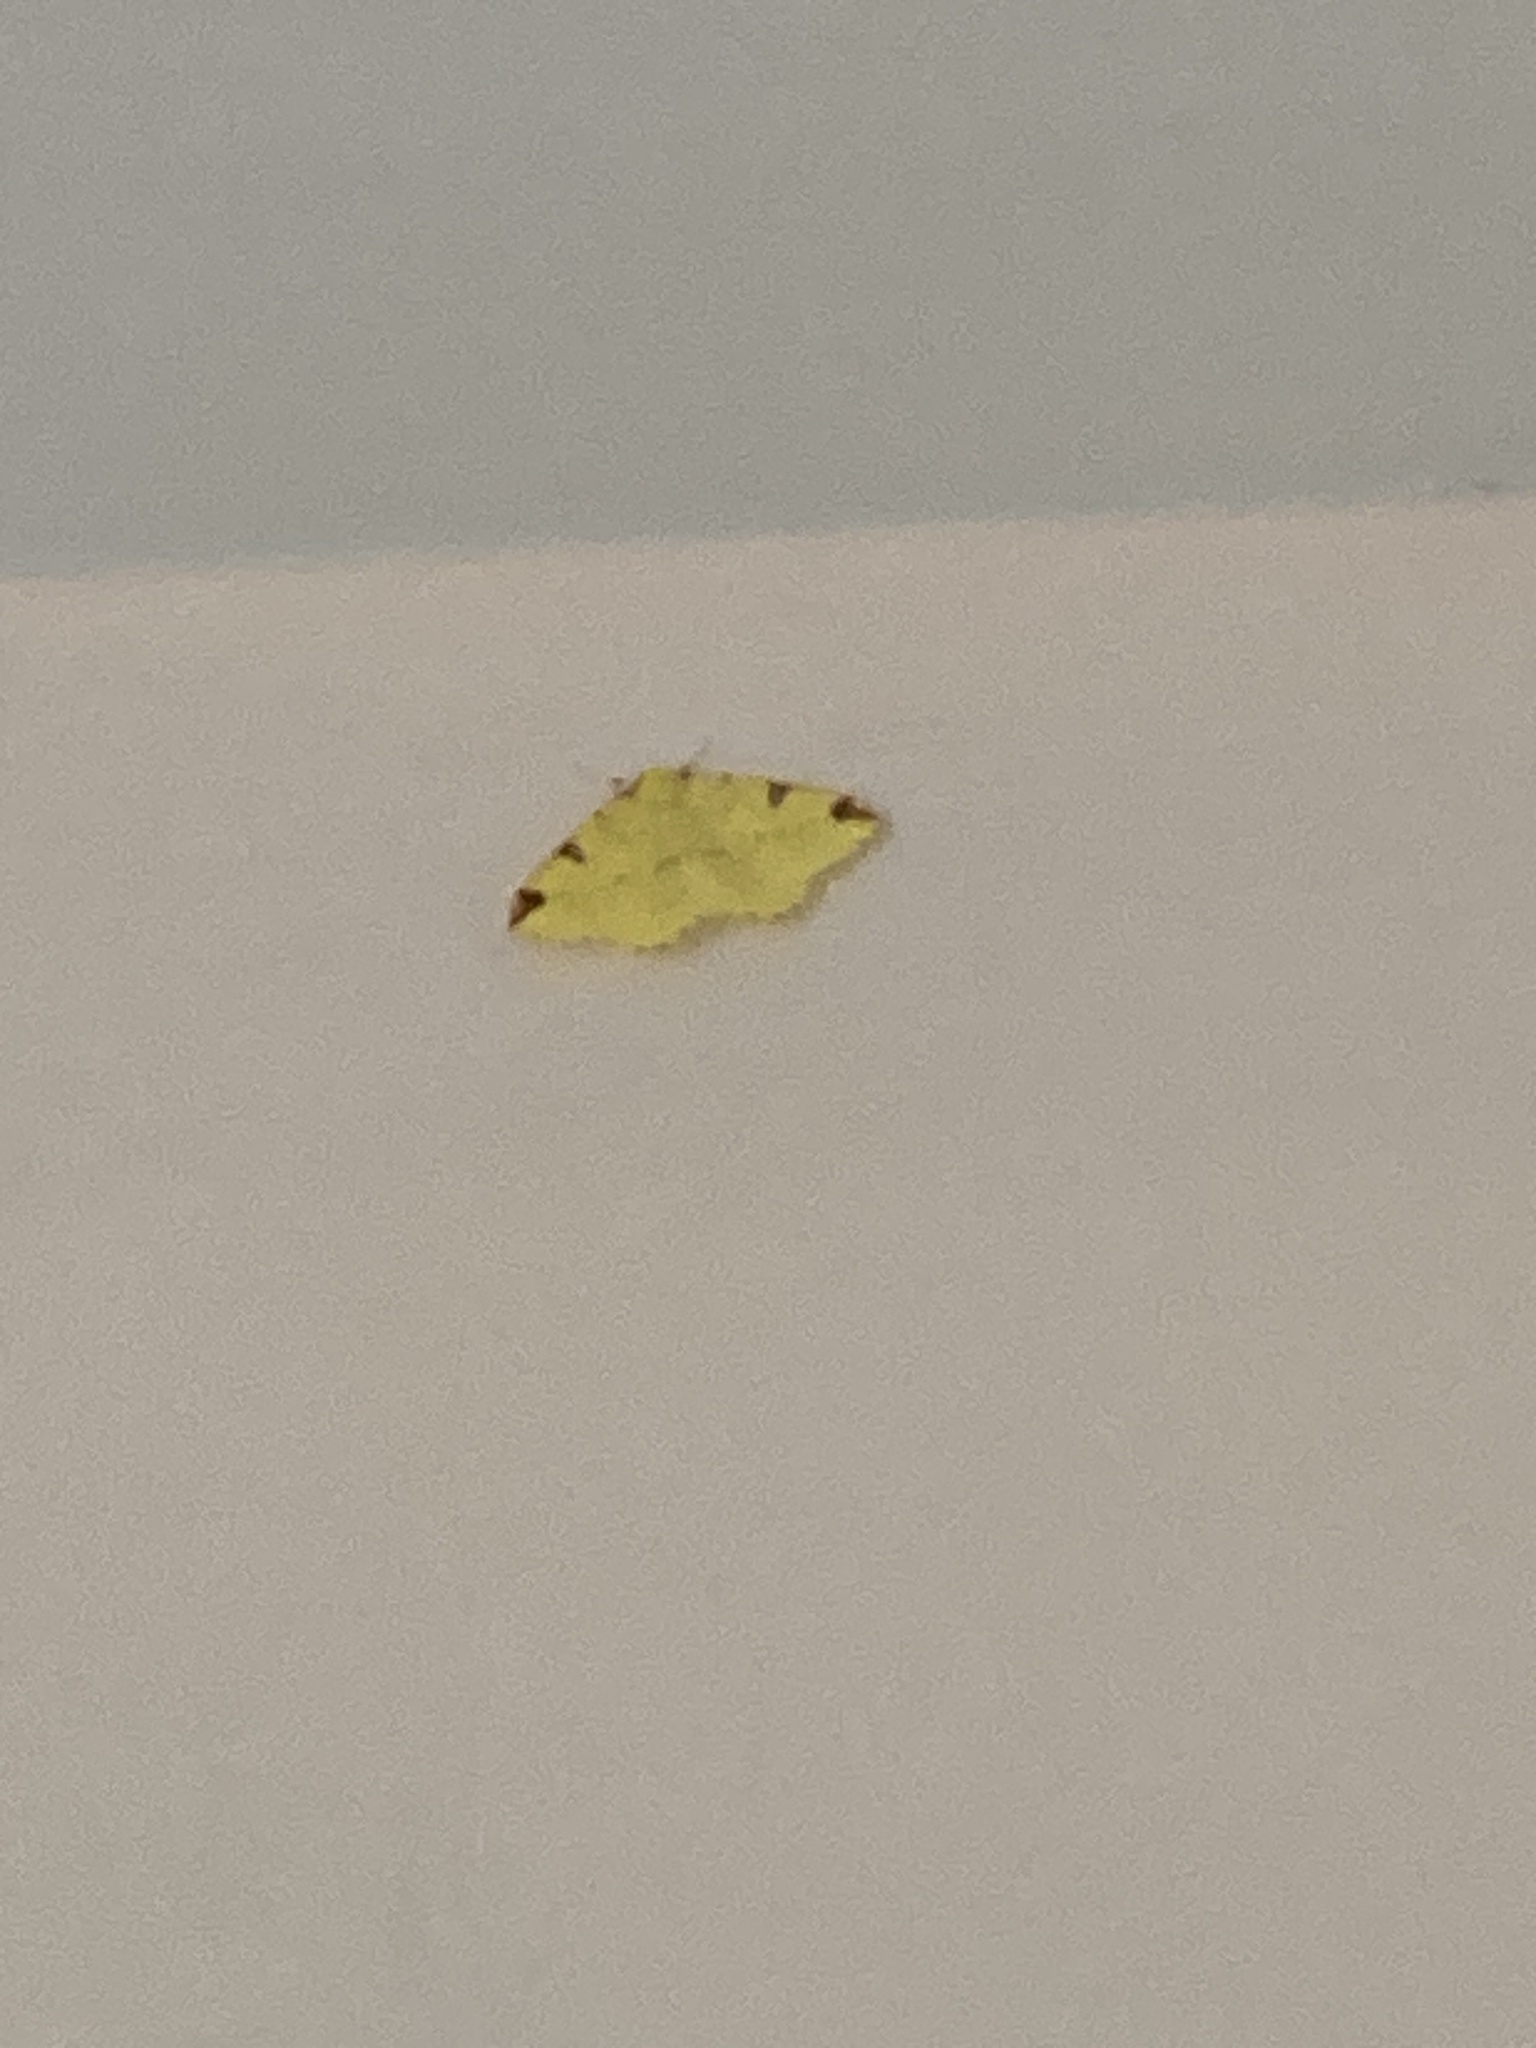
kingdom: Animalia
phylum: Arthropoda
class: Insecta
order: Lepidoptera
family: Geometridae
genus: Opisthograptis
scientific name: Opisthograptis luteolata
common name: Brimstone moth
